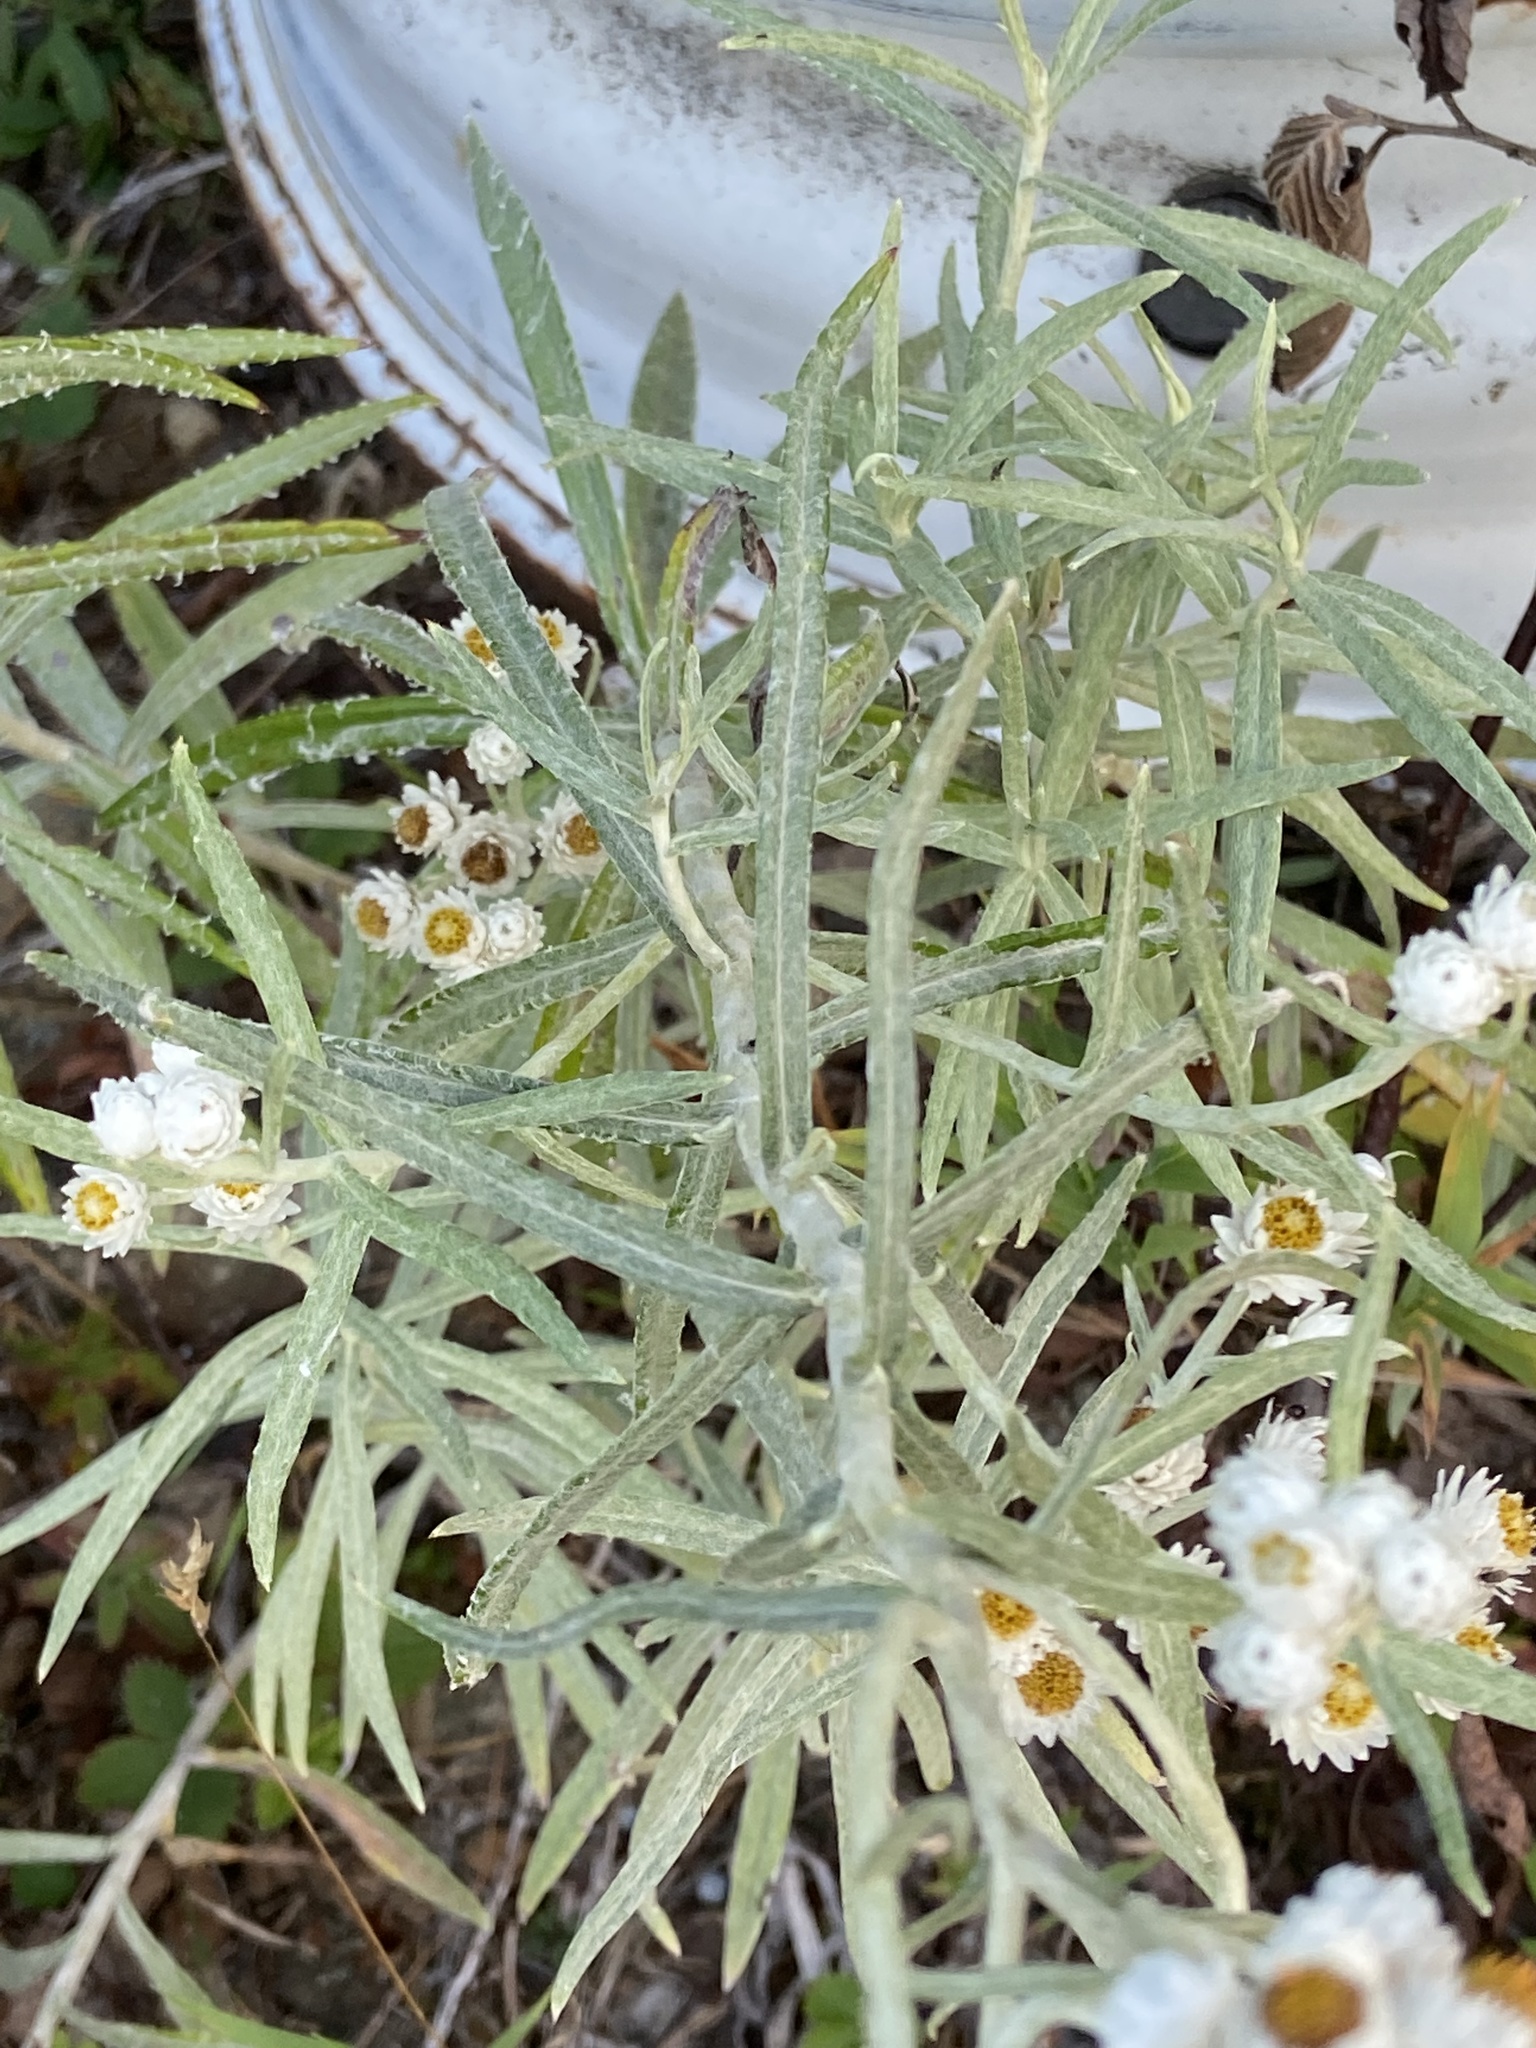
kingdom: Plantae
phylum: Tracheophyta
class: Magnoliopsida
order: Asterales
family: Asteraceae
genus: Anaphalis
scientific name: Anaphalis margaritacea
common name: Pearly everlasting
